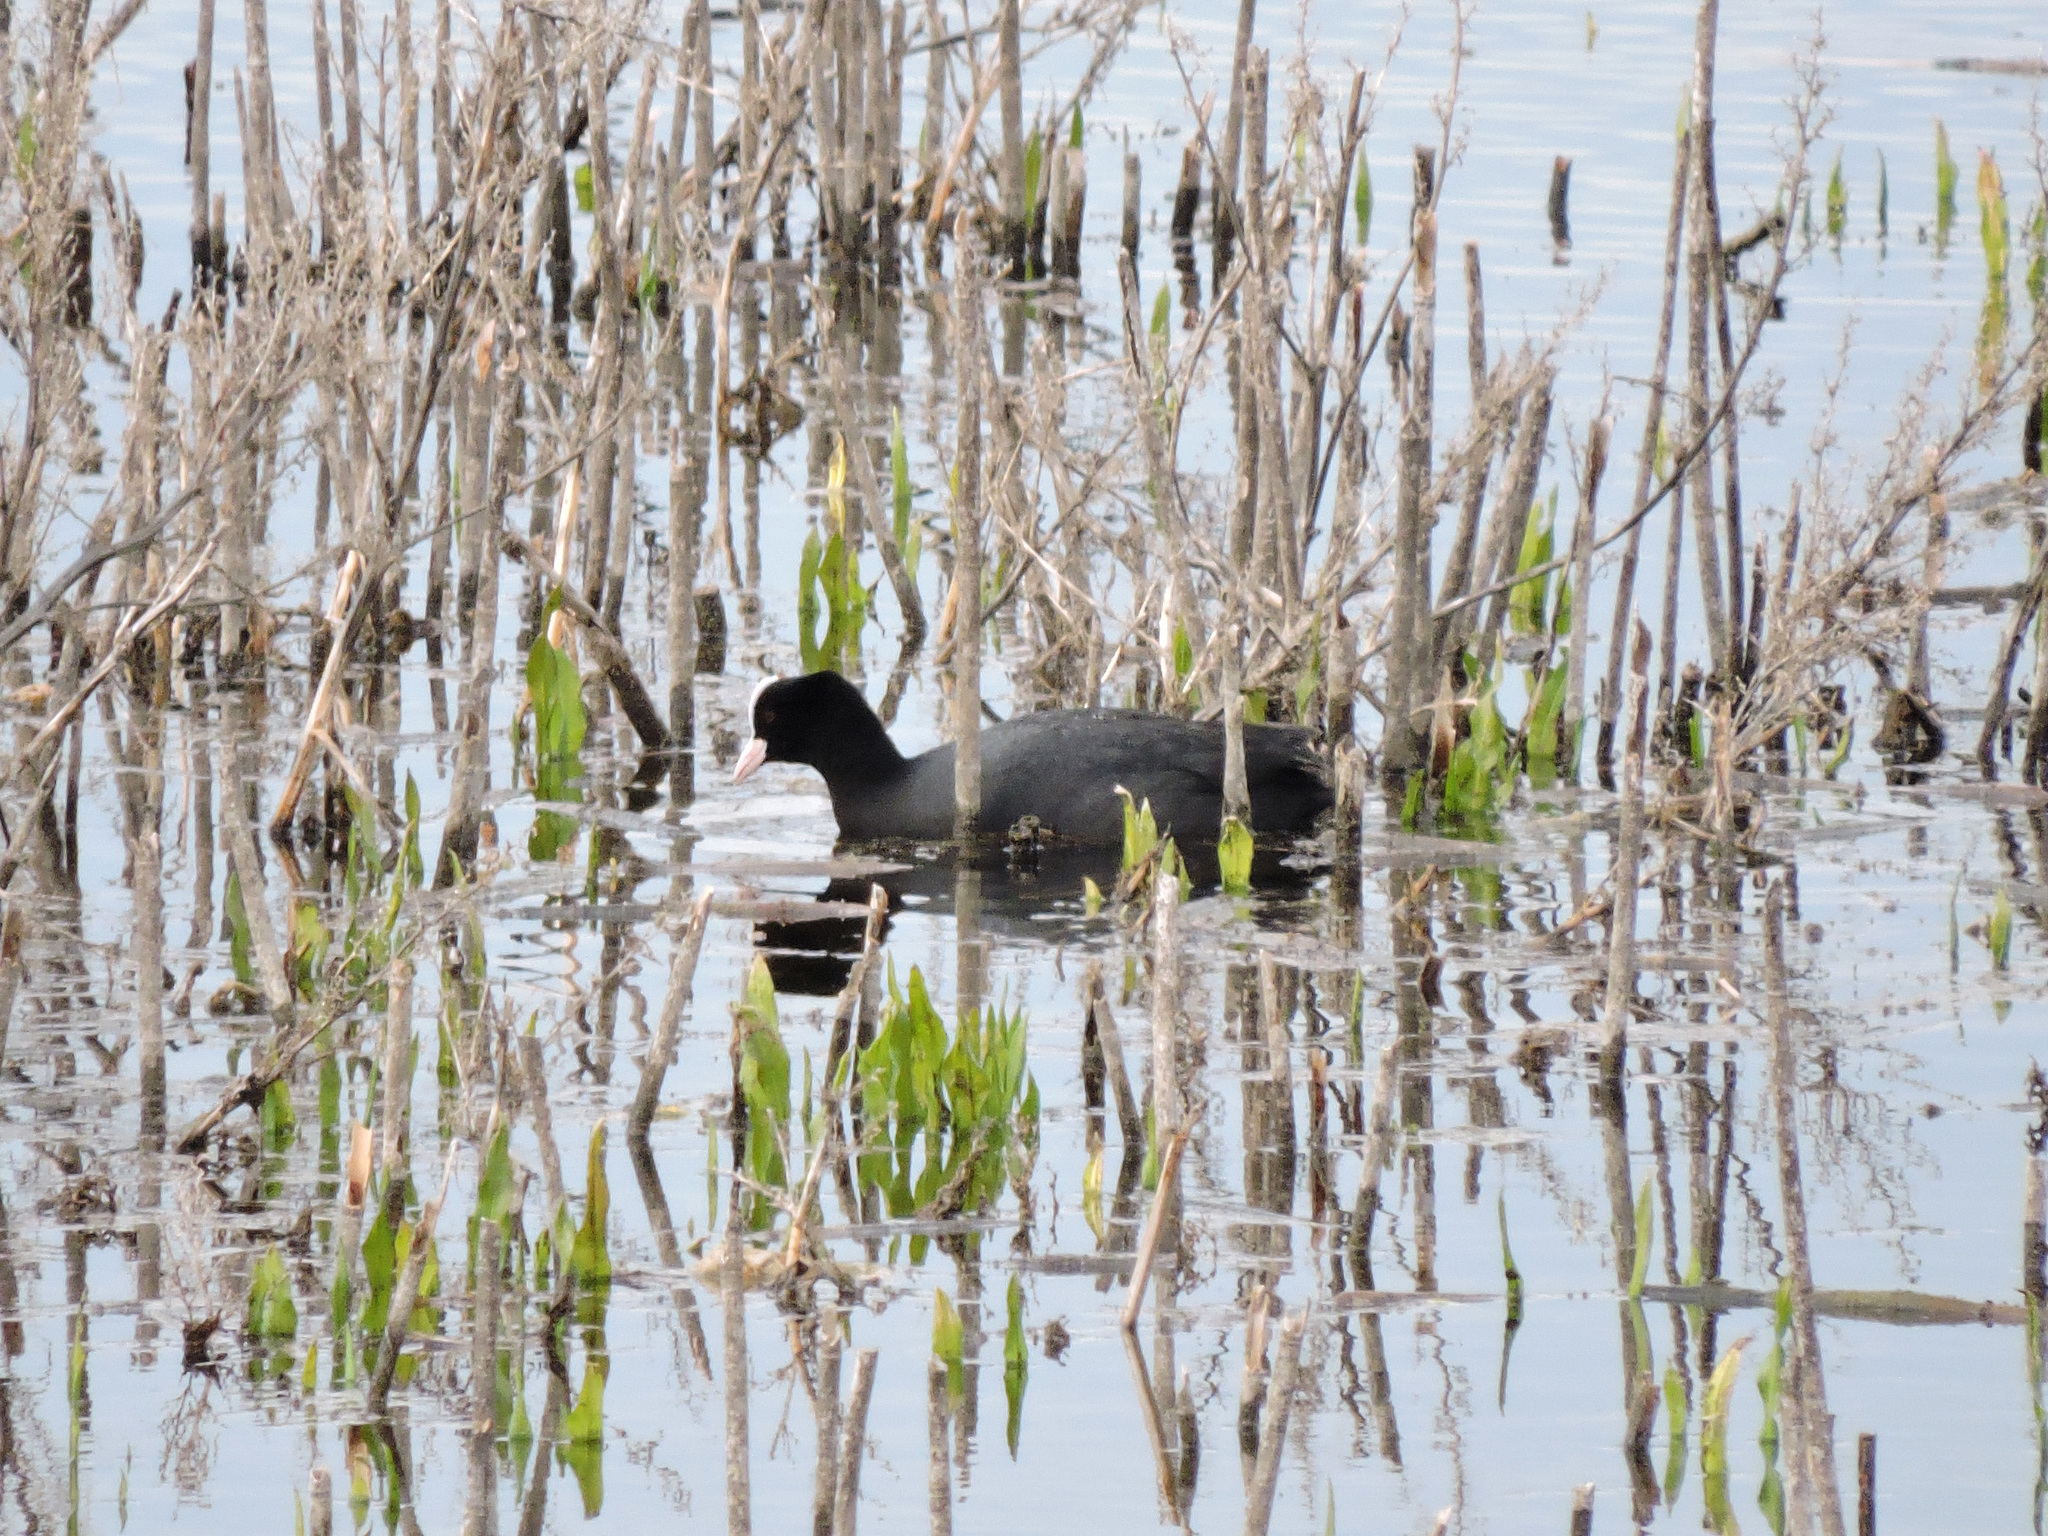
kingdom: Animalia
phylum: Chordata
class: Aves
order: Gruiformes
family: Rallidae
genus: Fulica
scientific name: Fulica atra
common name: Eurasian coot
